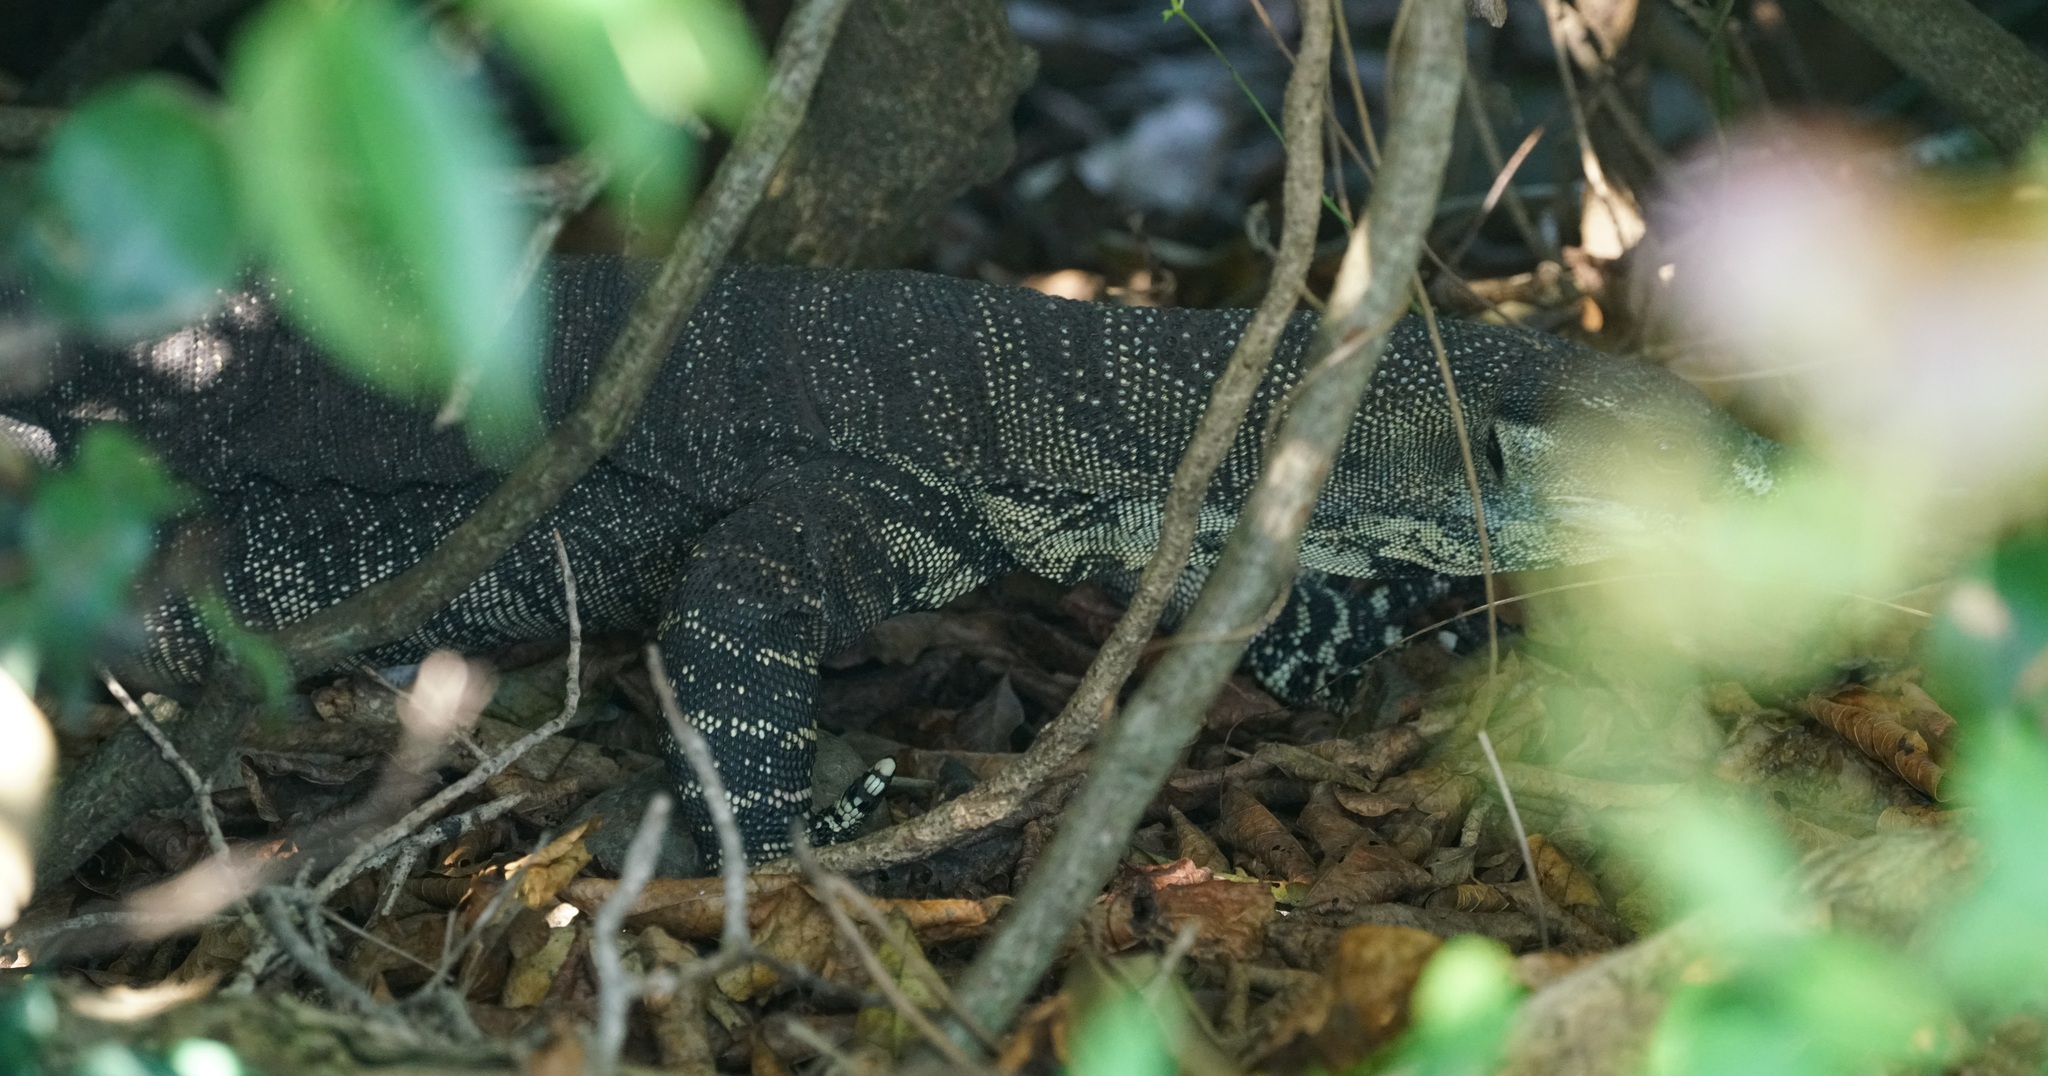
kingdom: Animalia
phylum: Chordata
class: Squamata
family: Varanidae
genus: Varanus
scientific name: Varanus varius
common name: Lace monitor
